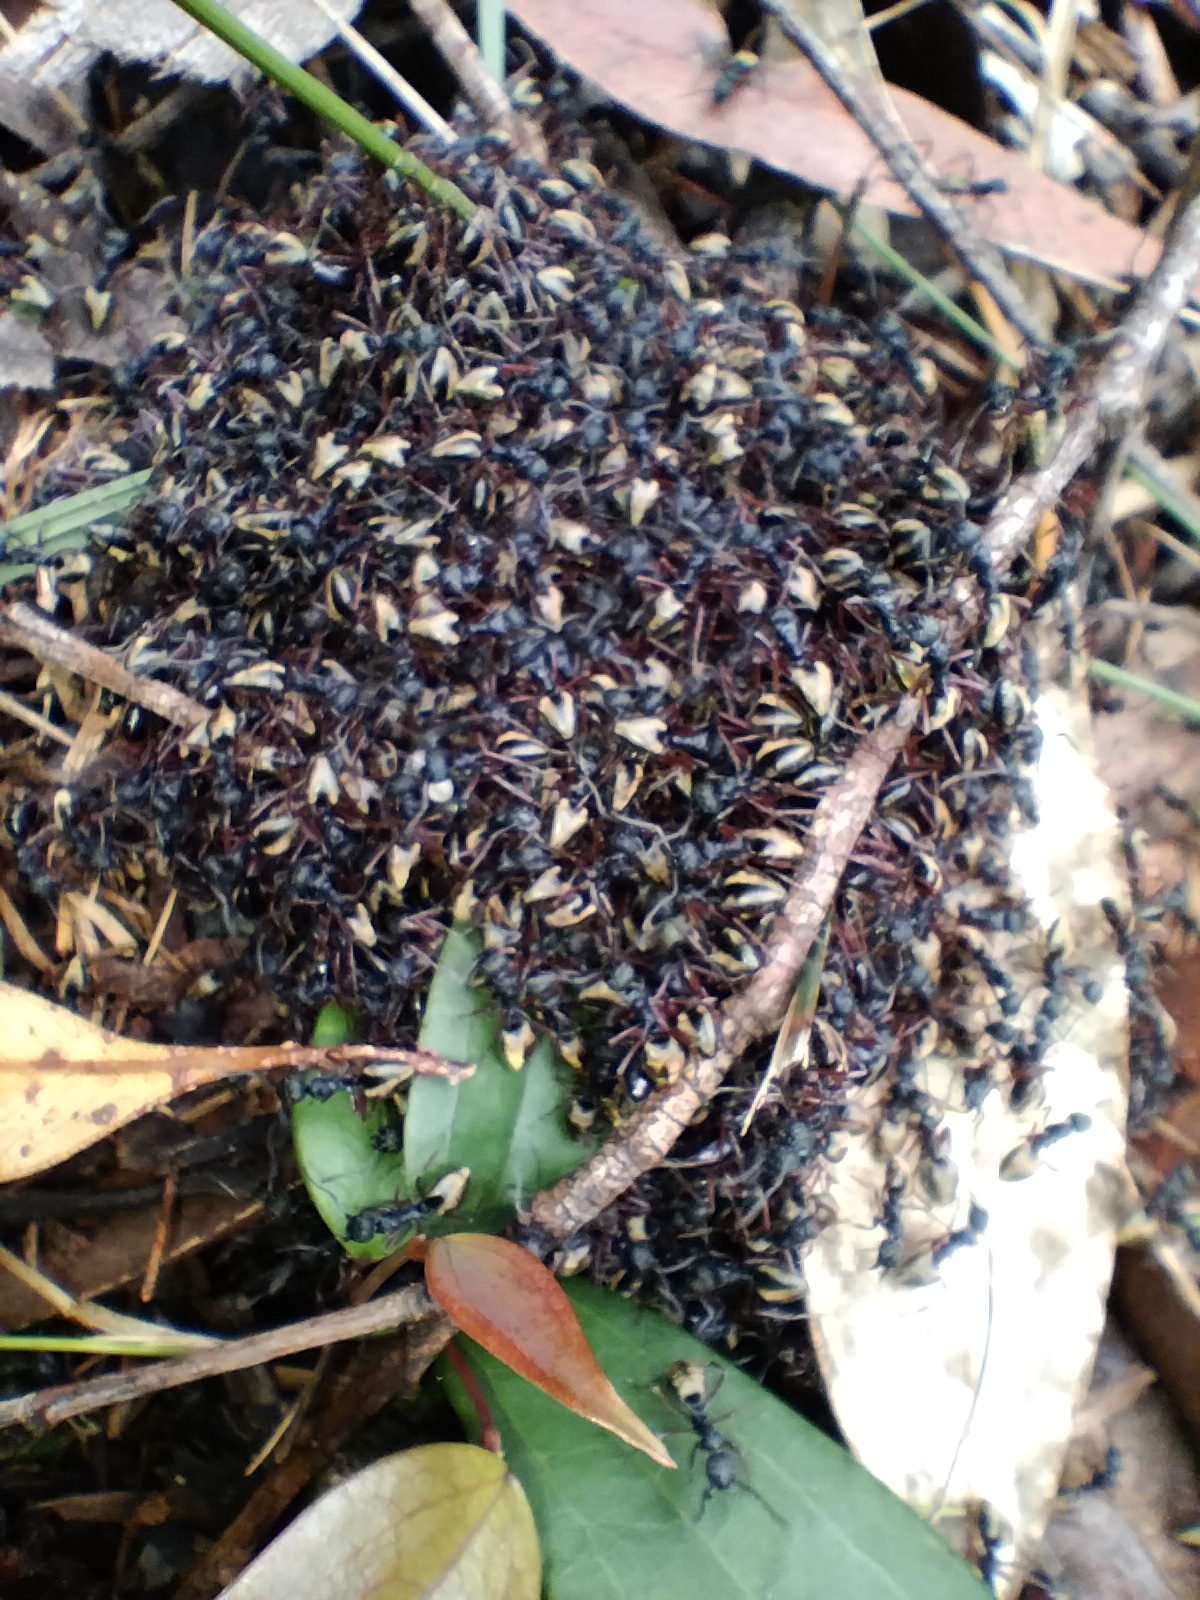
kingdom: Animalia
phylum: Arthropoda
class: Insecta
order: Hymenoptera
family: Formicidae
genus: Dolichoderus
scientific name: Dolichoderus doriae
